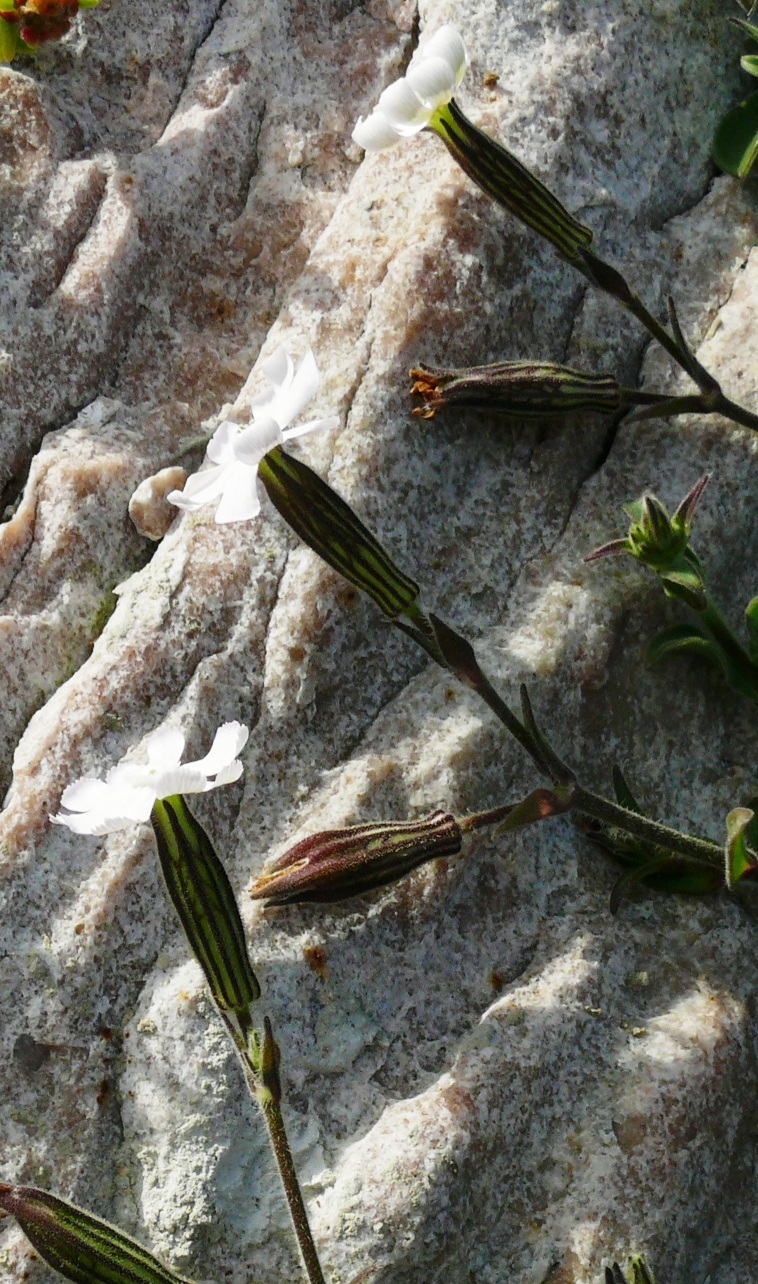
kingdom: Plantae
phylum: Tracheophyta
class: Magnoliopsida
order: Caryophyllales
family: Caryophyllaceae
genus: Silene
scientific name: Silene undulata
